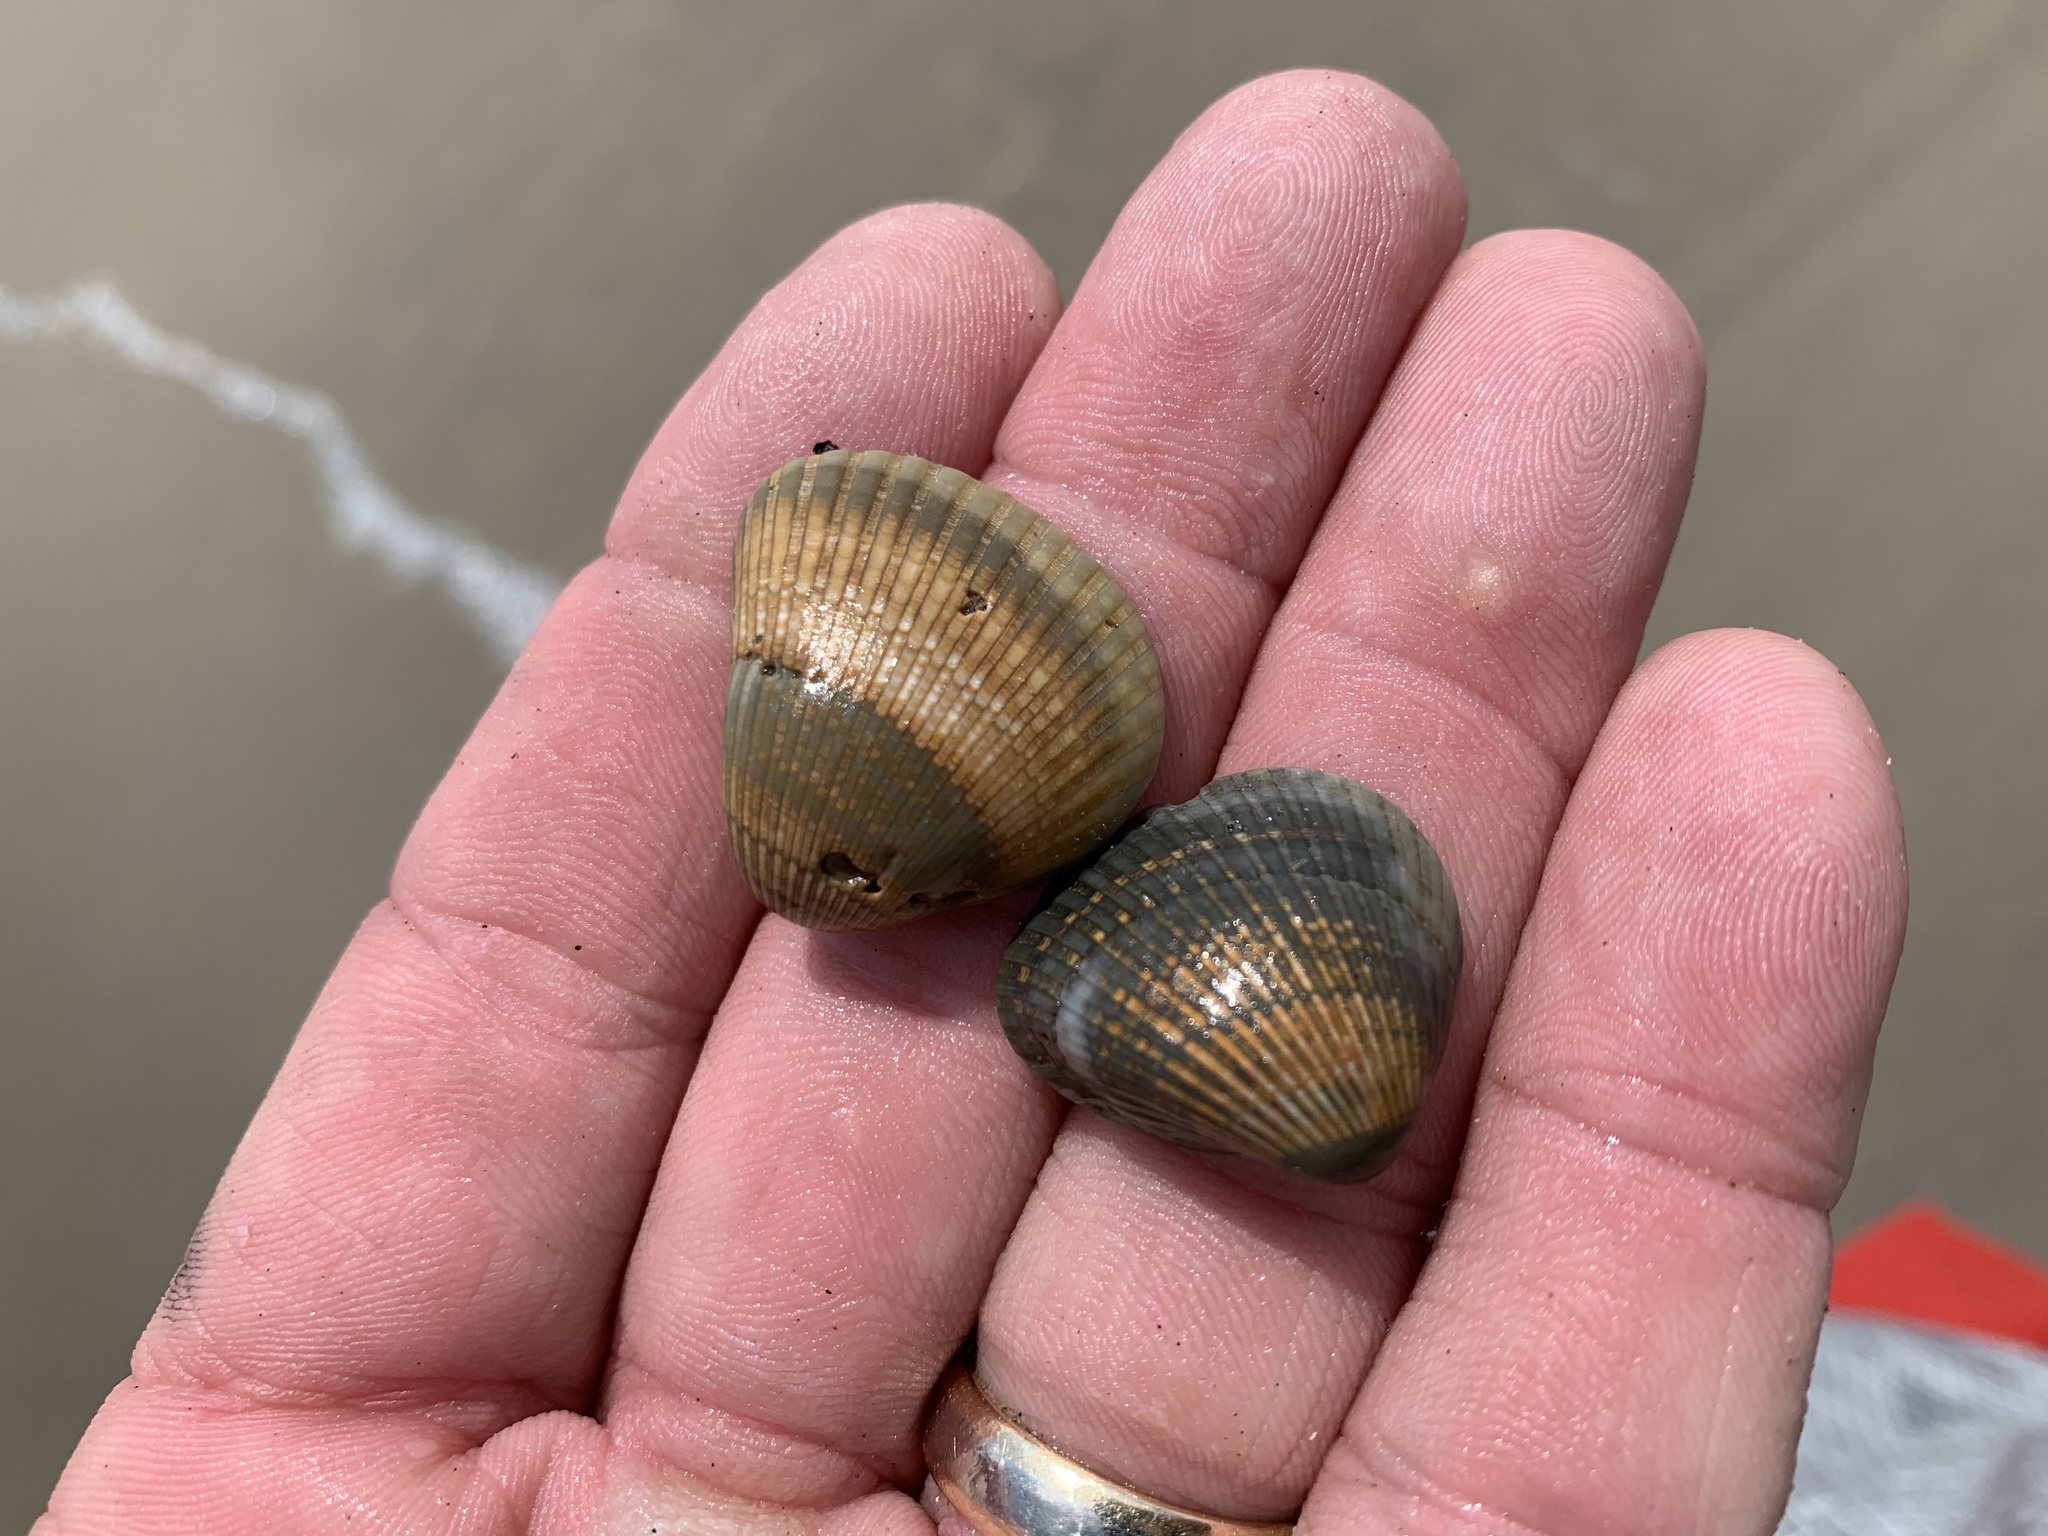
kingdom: Animalia
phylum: Mollusca
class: Bivalvia
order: Arcida
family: Noetiidae
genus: Noetia
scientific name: Noetia ponderosa
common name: Ponderous ark
